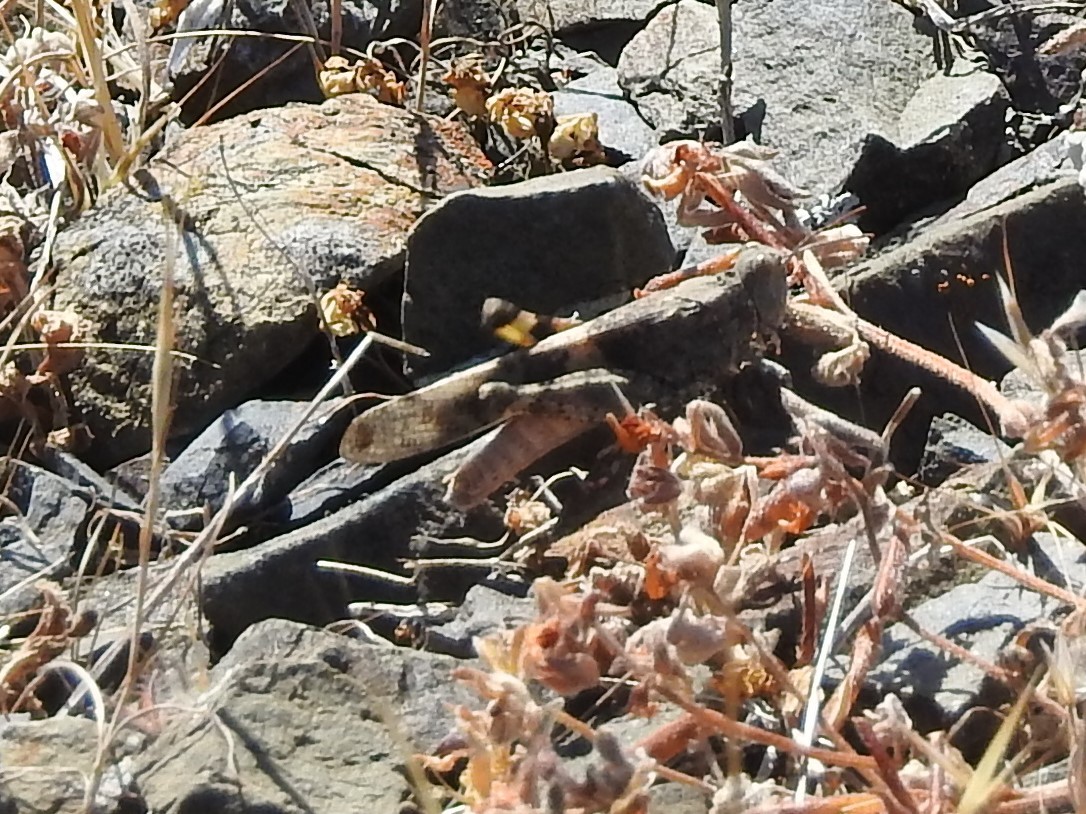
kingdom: Animalia
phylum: Arthropoda
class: Insecta
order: Orthoptera
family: Acrididae
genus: Trimerotropis
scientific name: Trimerotropis pallidipennis
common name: Pallid-winged grasshopper
